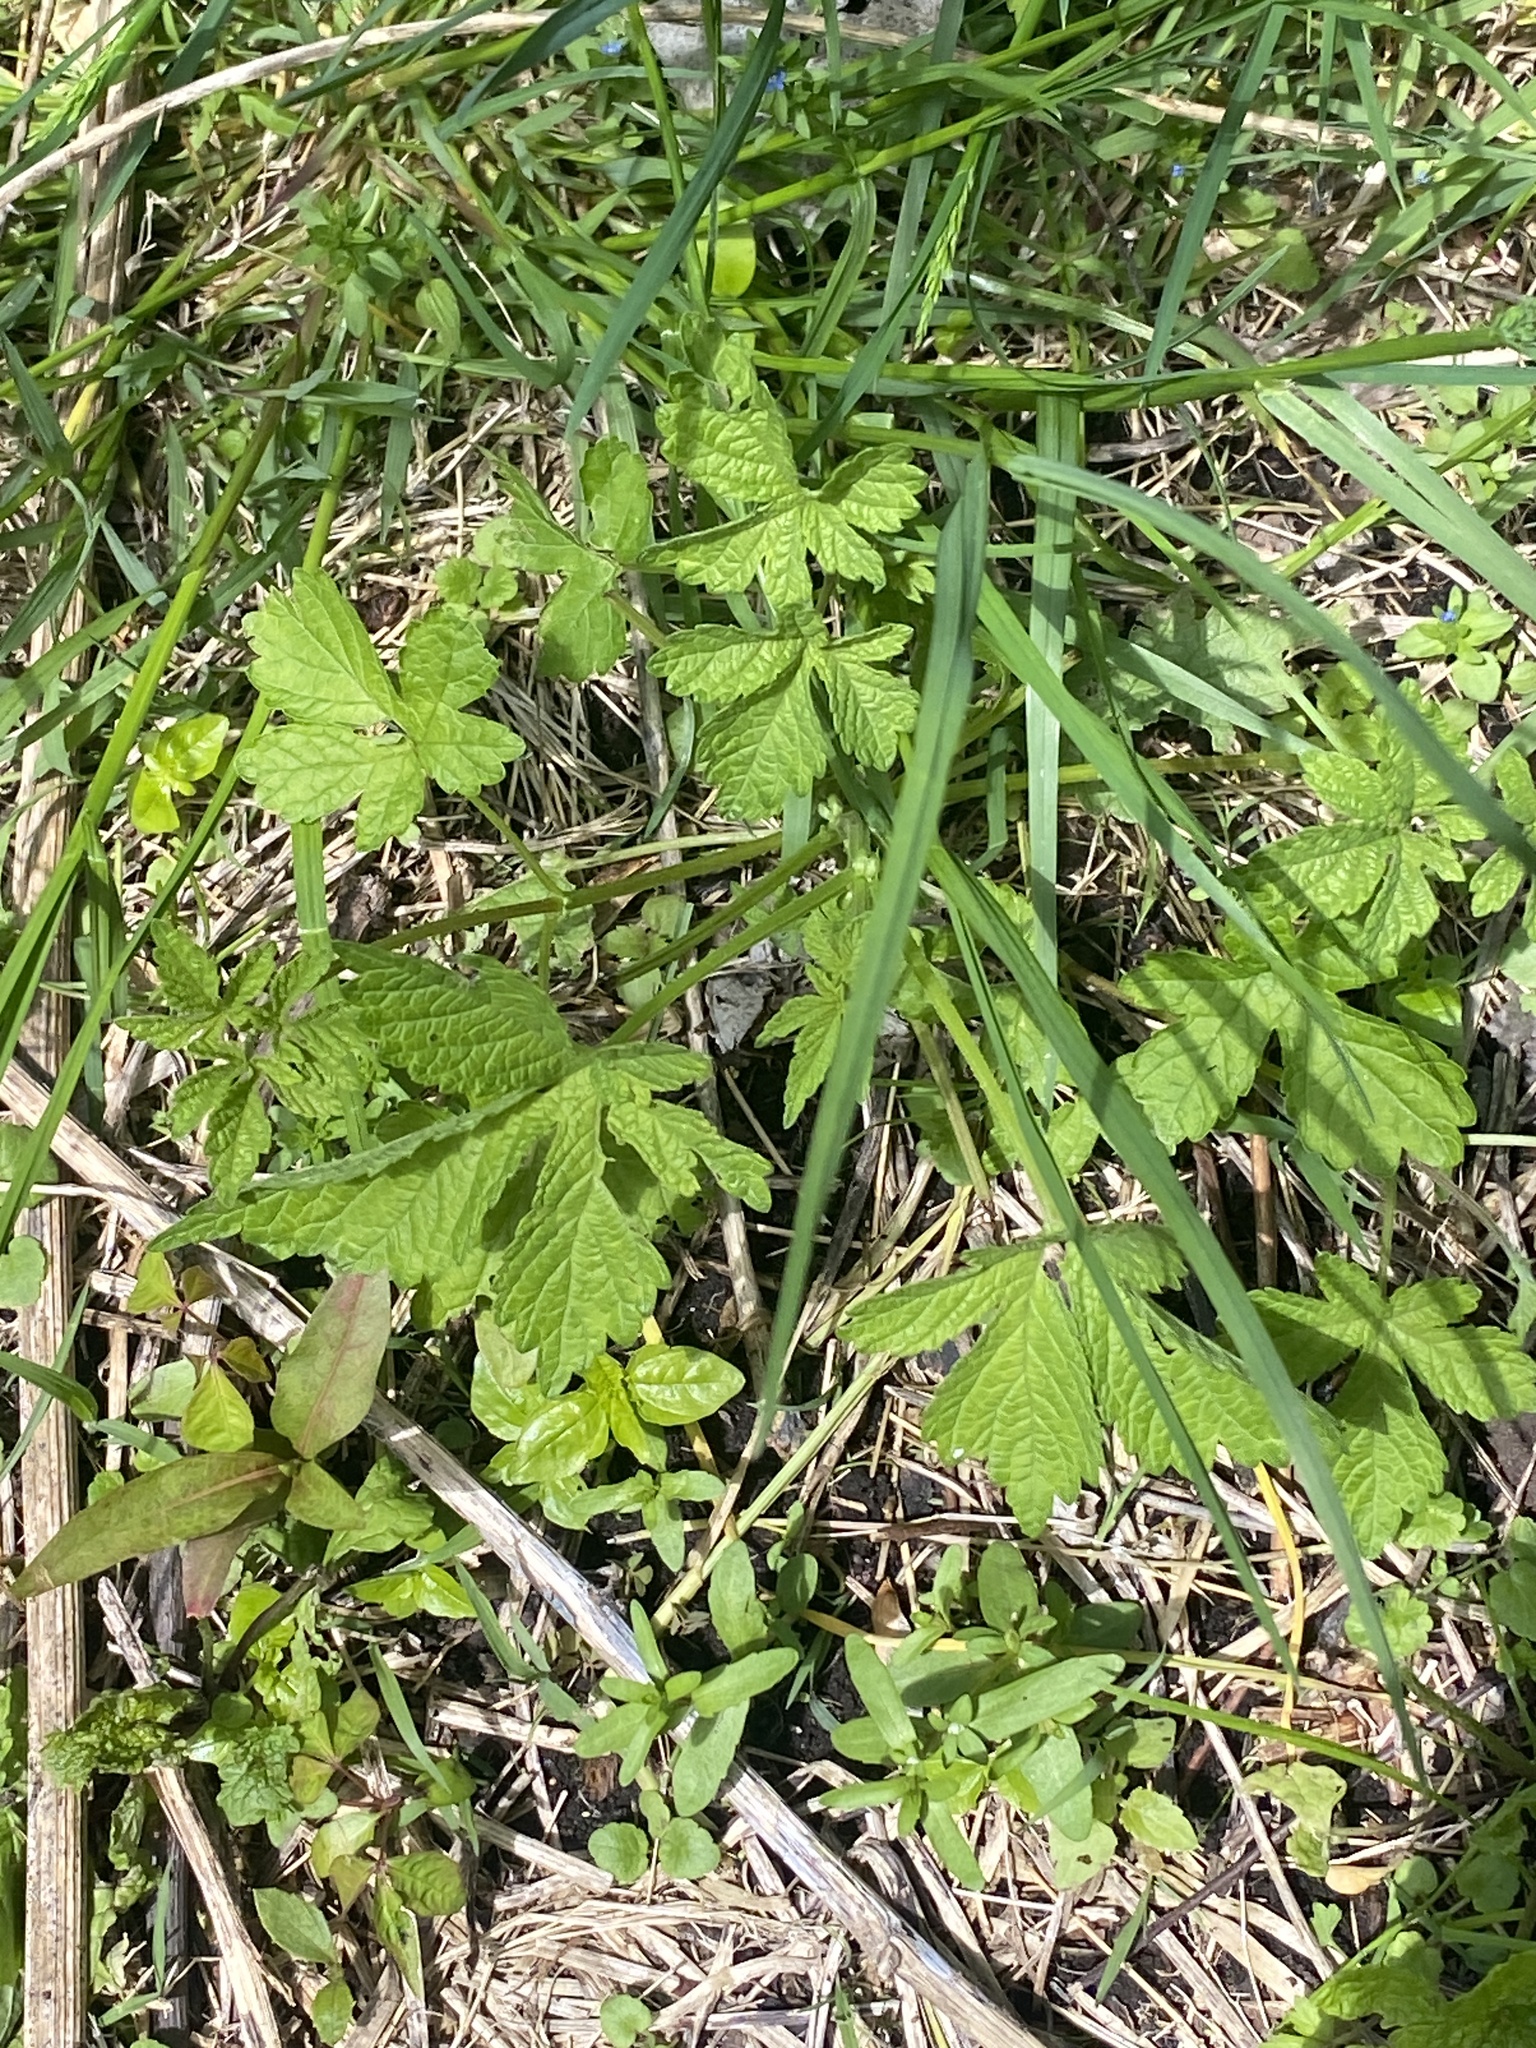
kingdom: Plantae
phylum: Tracheophyta
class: Magnoliopsida
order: Rosales
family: Cannabaceae
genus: Humulus
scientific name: Humulus scandens
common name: Japanese hop
